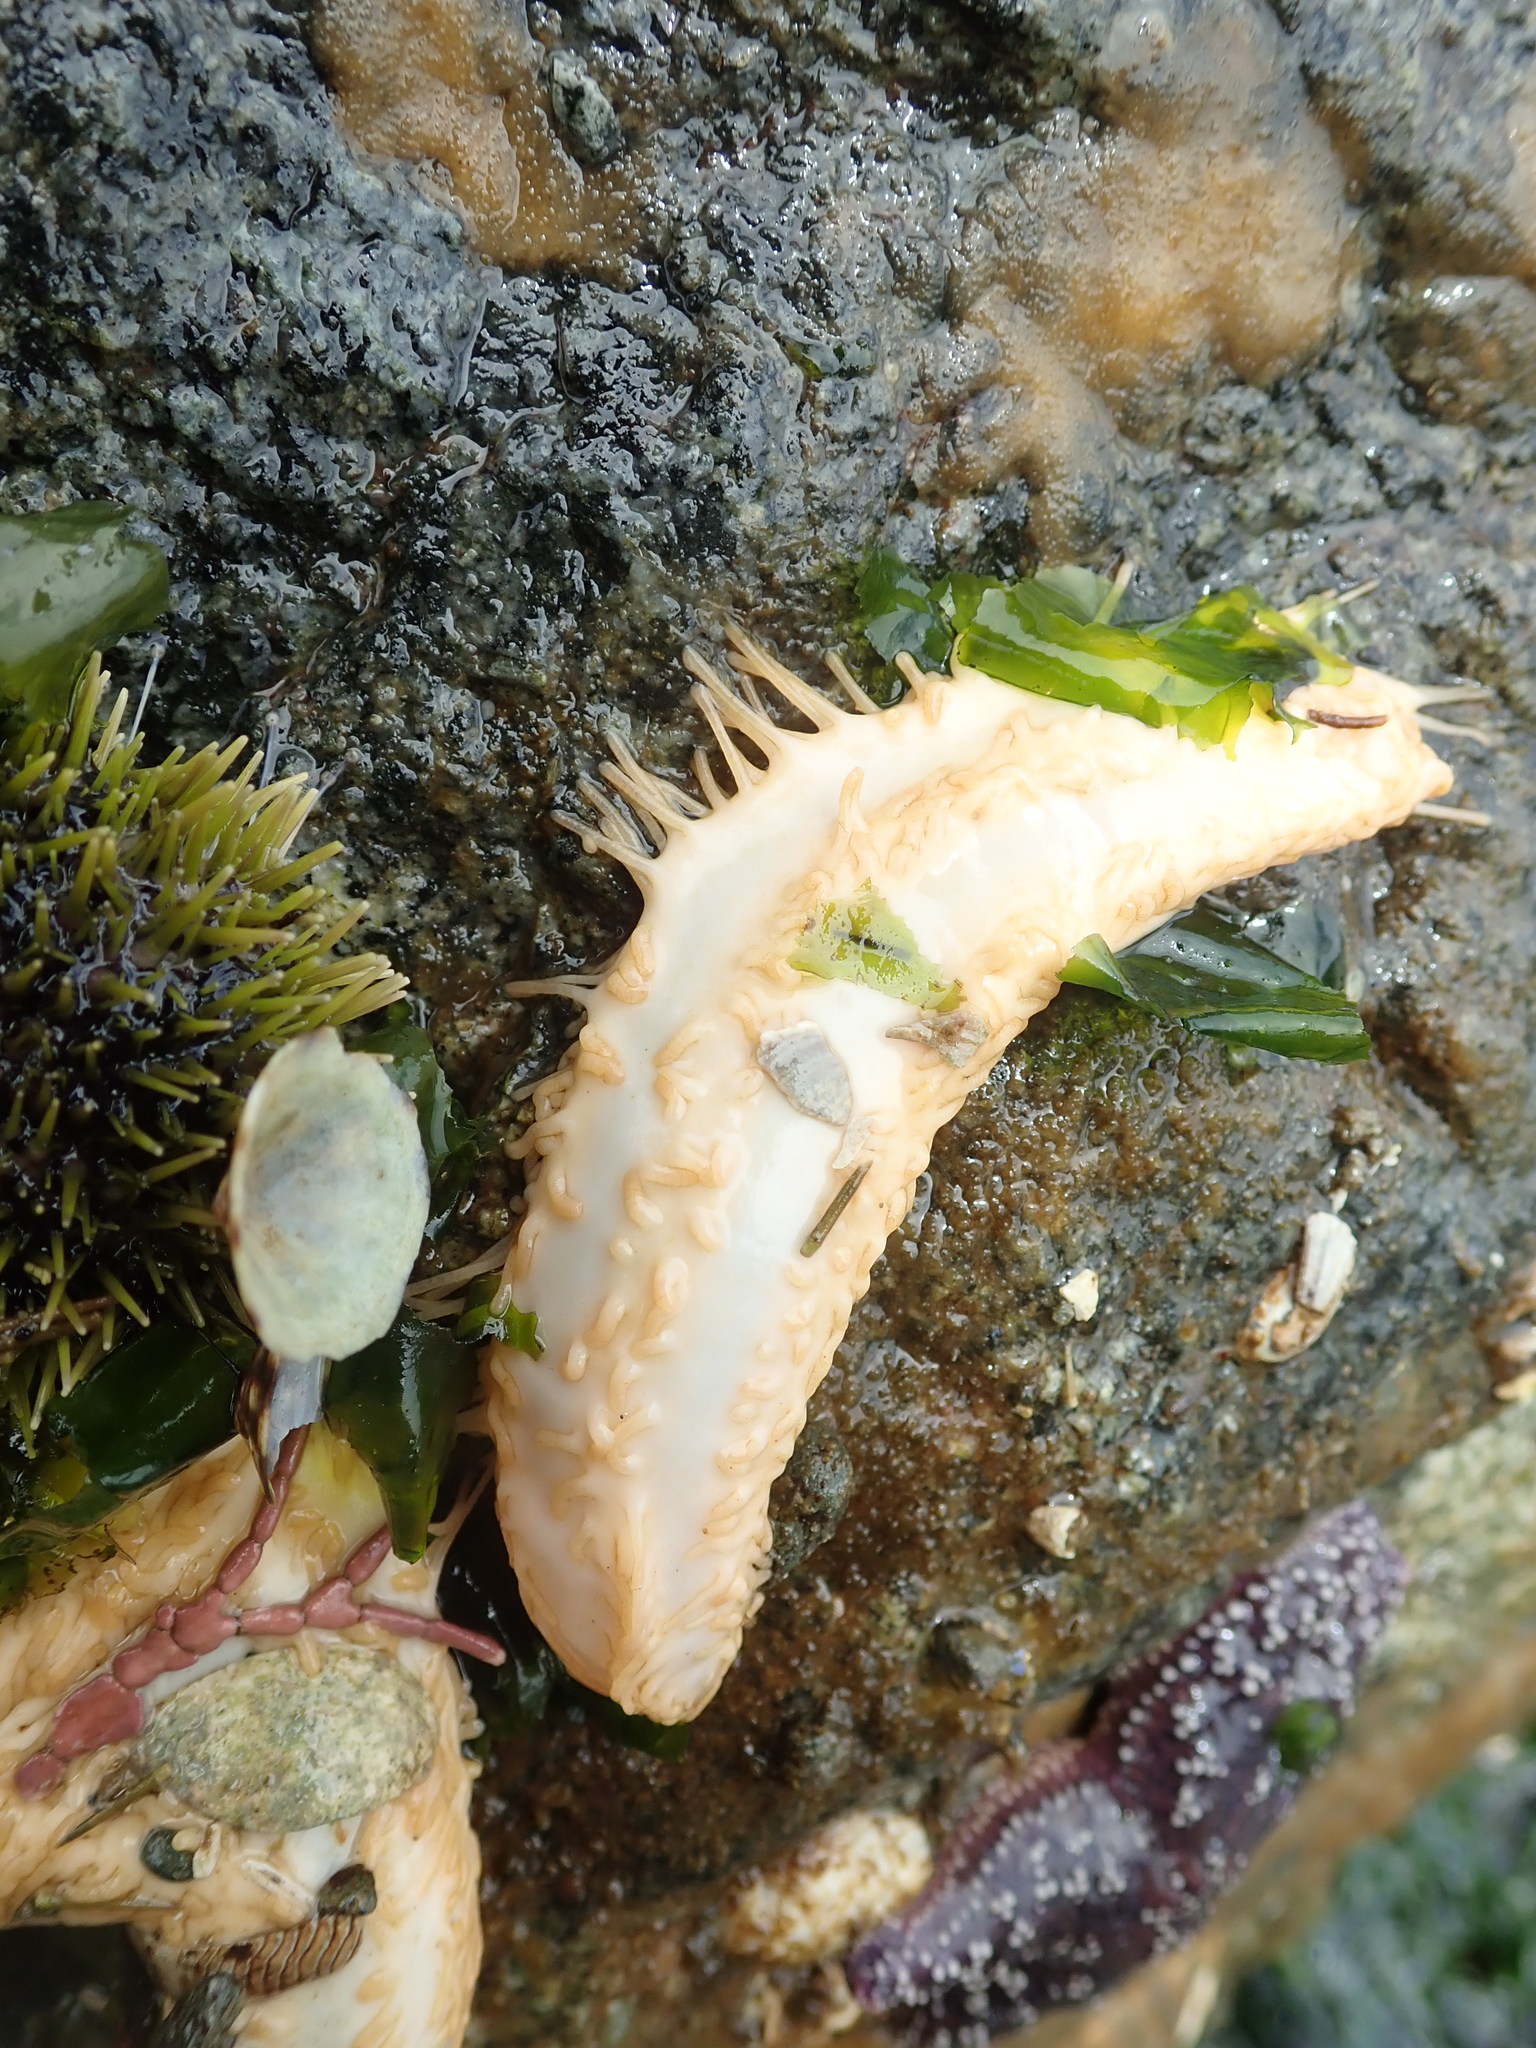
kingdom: Animalia
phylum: Echinodermata
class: Holothuroidea
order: Dendrochirotida
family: Sclerodactylidae
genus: Eupentacta
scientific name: Eupentacta quinquesemita
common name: Pentamerous sea cucumber
